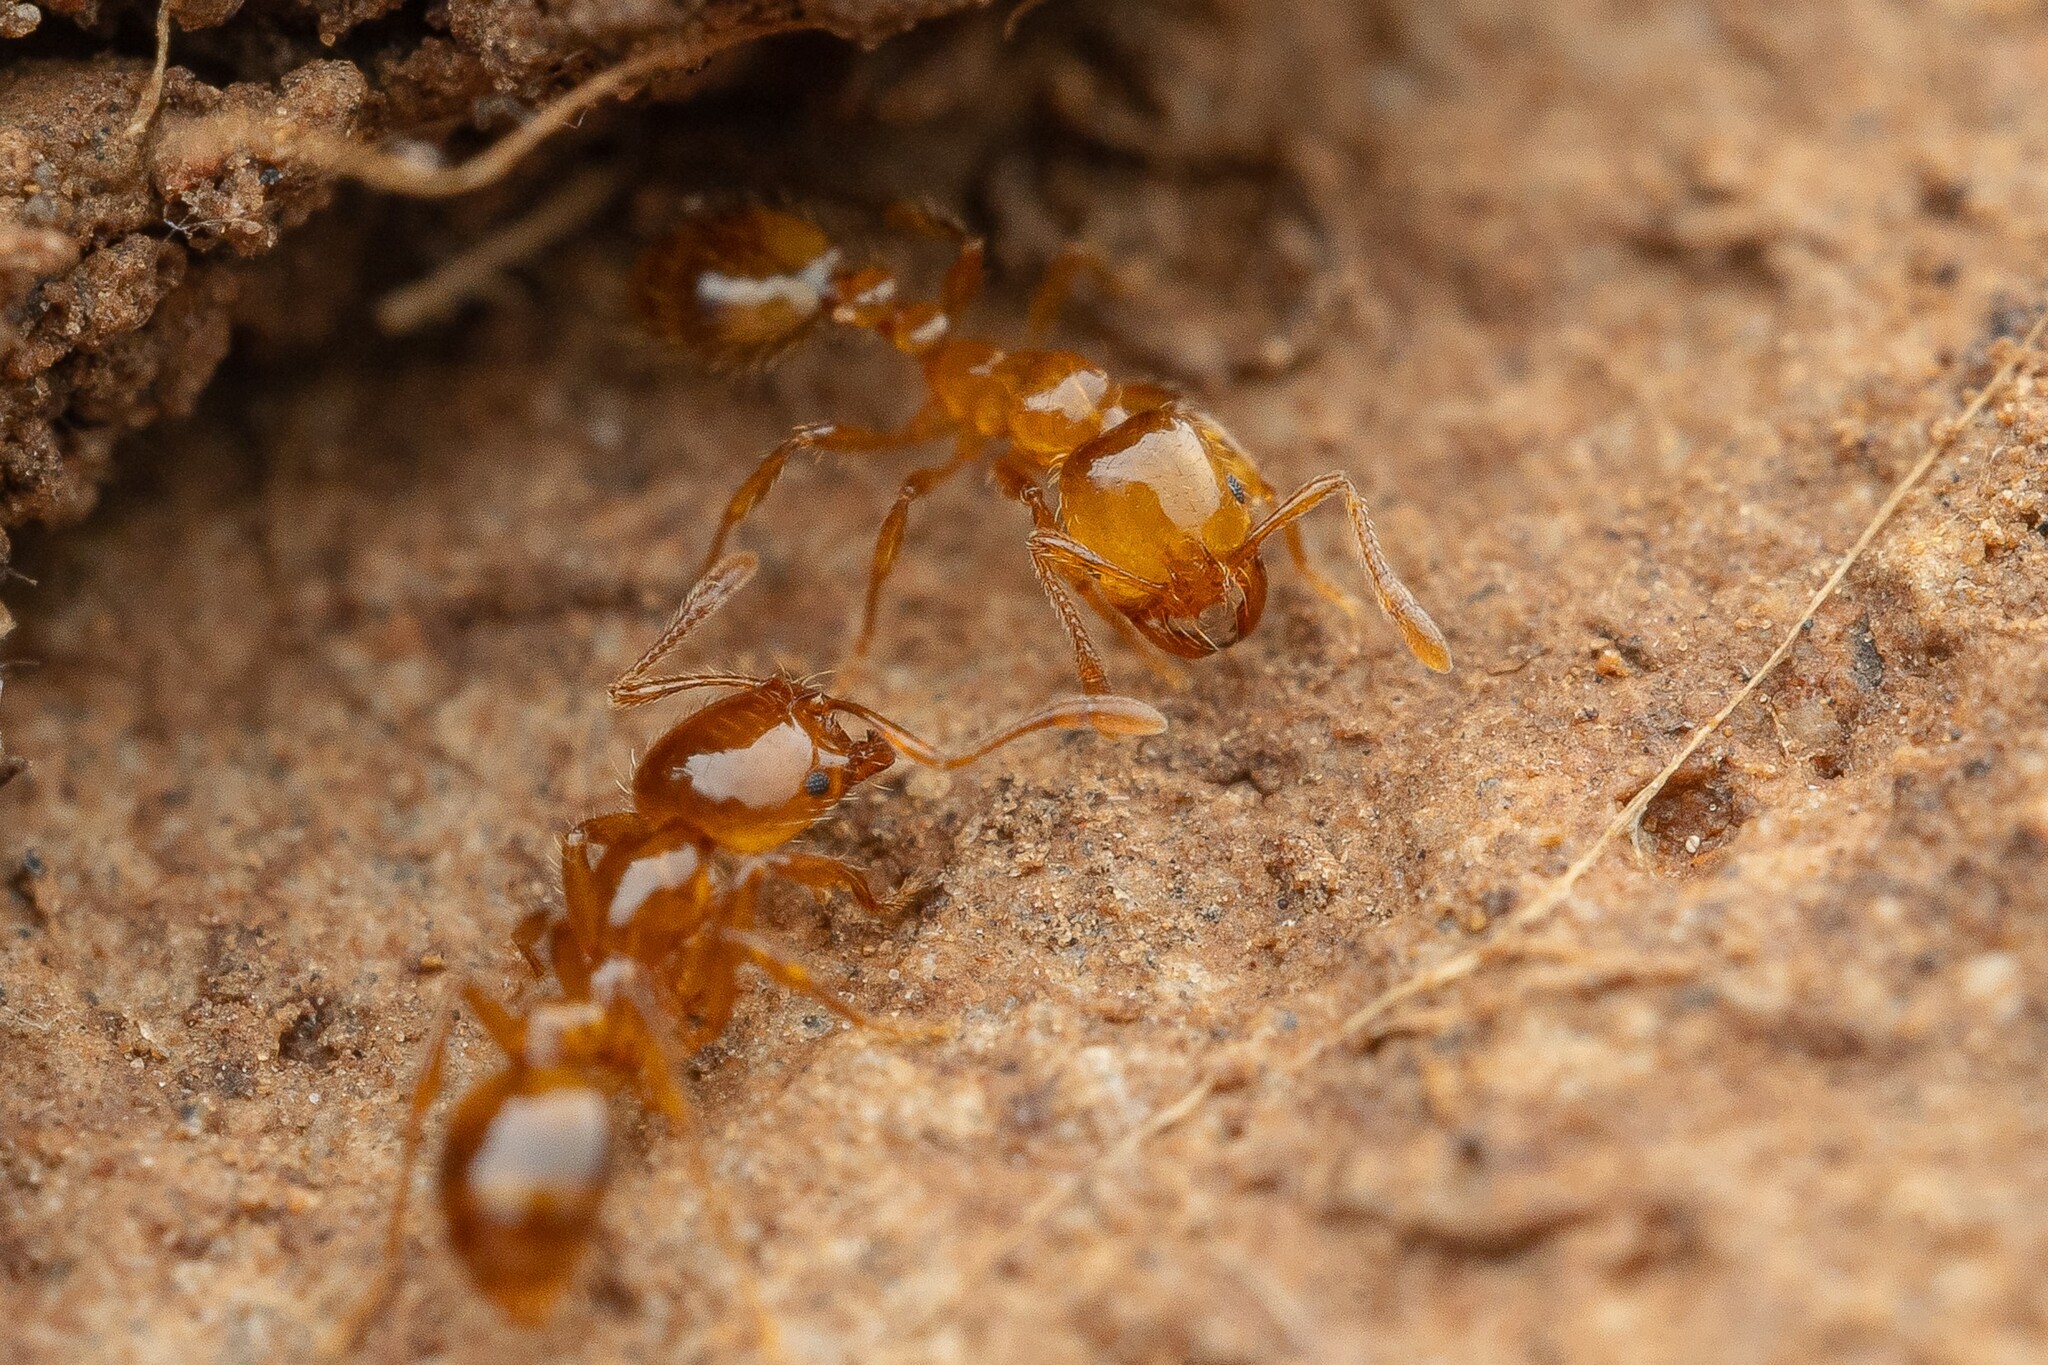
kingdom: Animalia
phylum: Arthropoda
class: Insecta
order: Hymenoptera
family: Formicidae
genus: Solenopsis
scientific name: Solenopsis aurea
